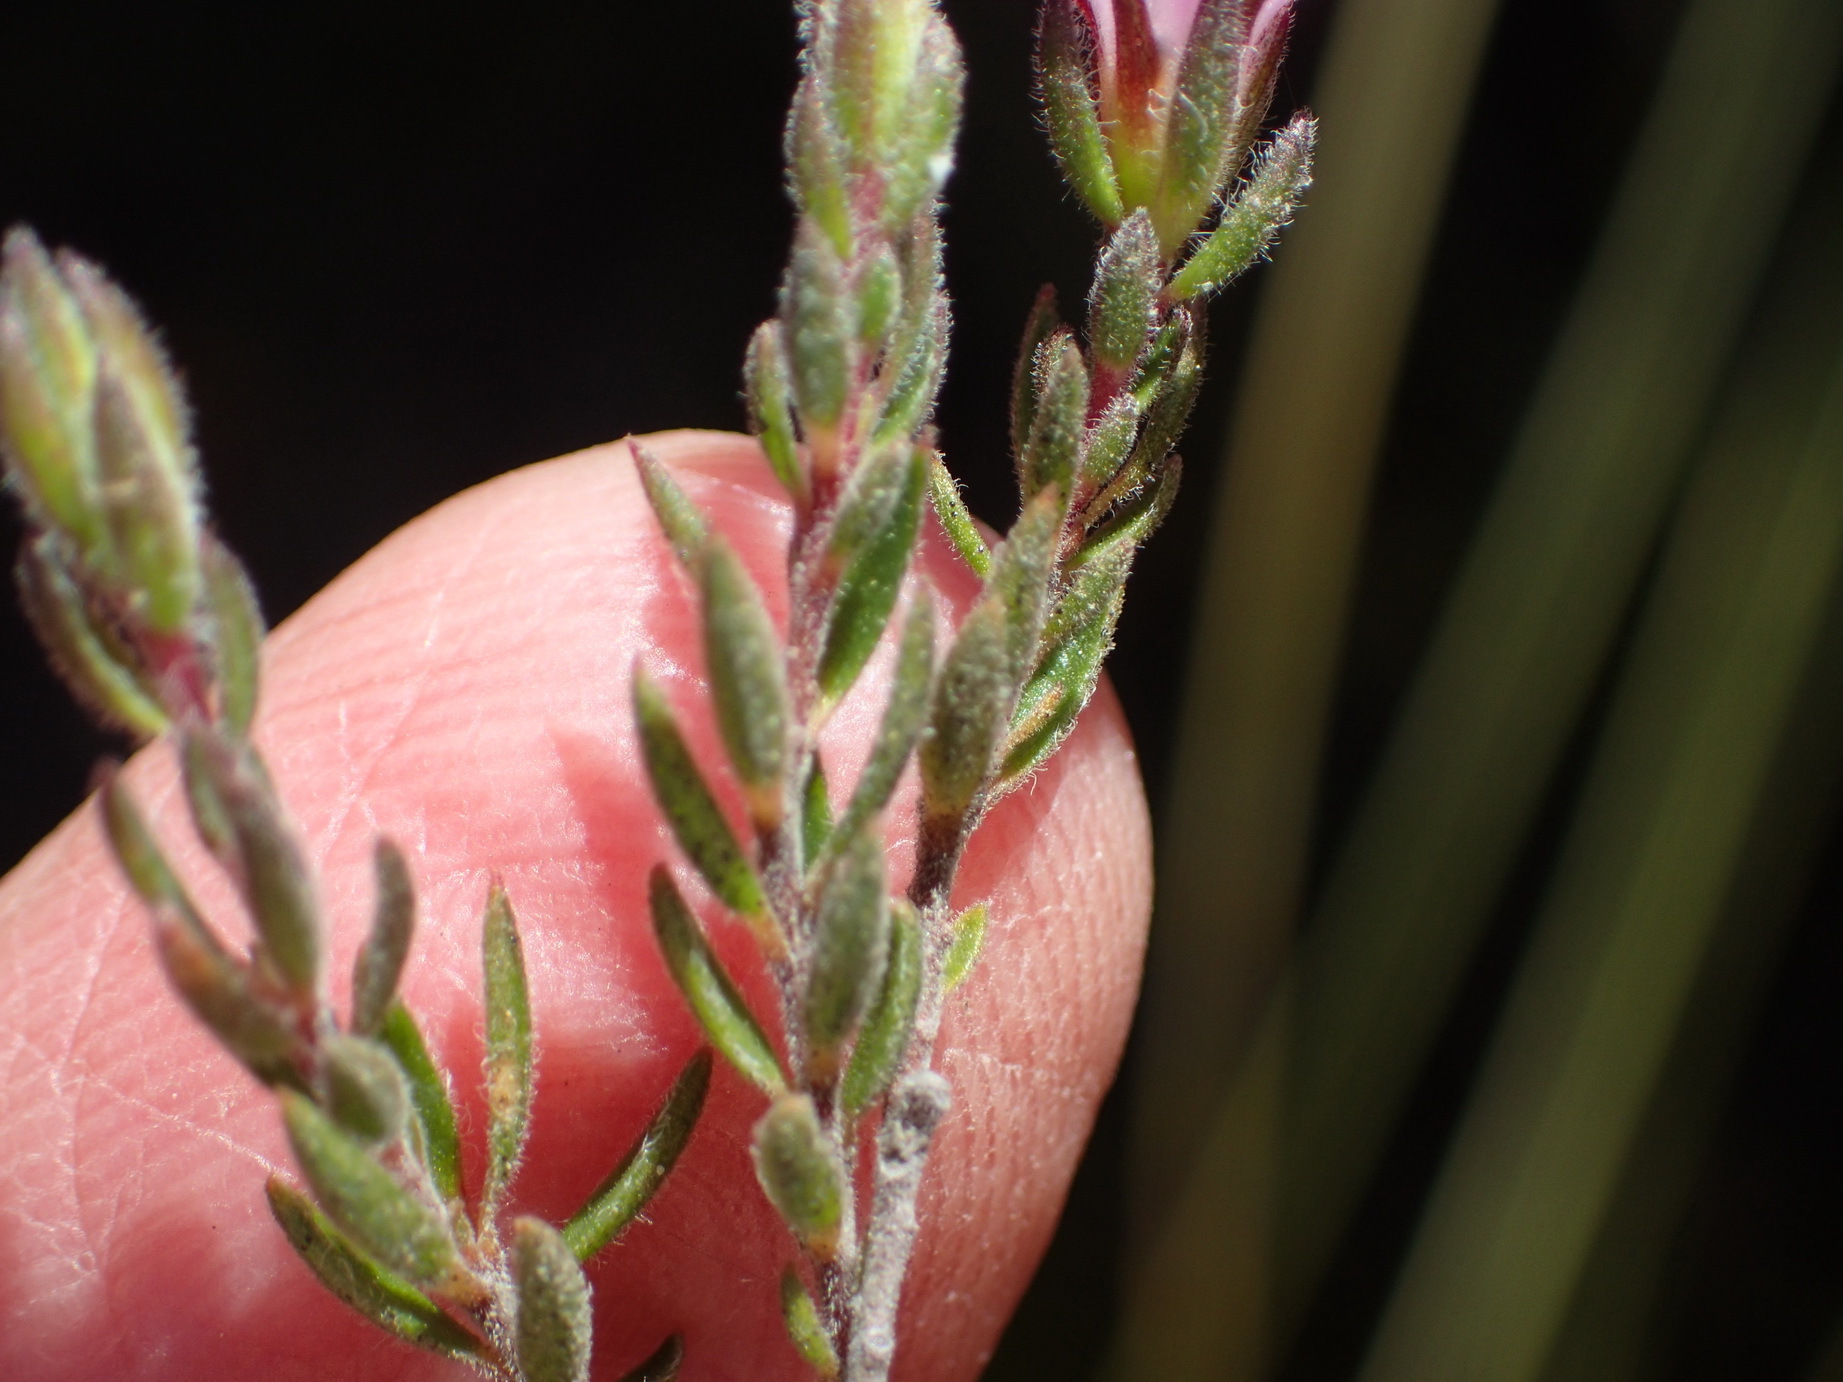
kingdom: Plantae
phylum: Tracheophyta
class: Magnoliopsida
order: Sapindales
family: Rutaceae
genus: Acmadenia
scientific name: Acmadenia rupicola
